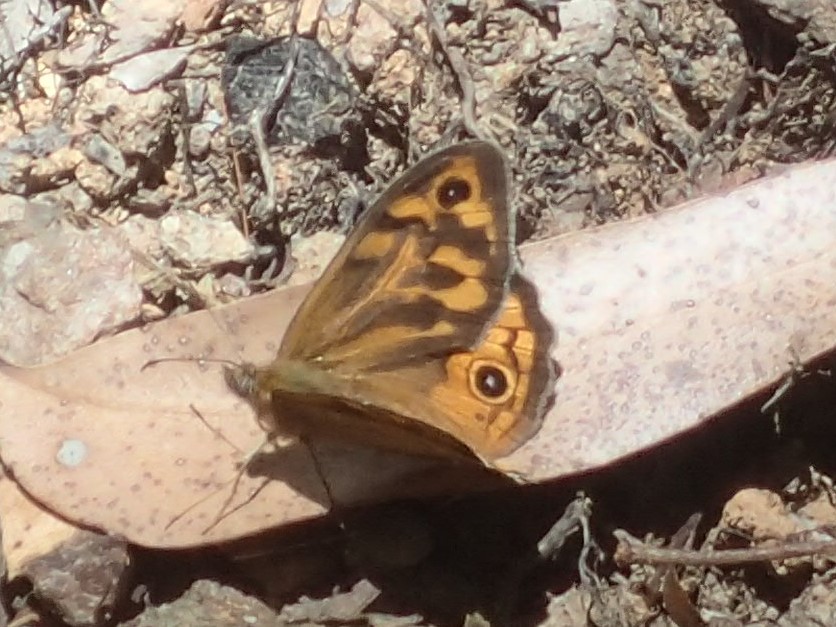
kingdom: Animalia
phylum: Arthropoda
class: Insecta
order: Lepidoptera
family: Nymphalidae
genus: Heteronympha
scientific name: Heteronympha merope
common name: Common brown
